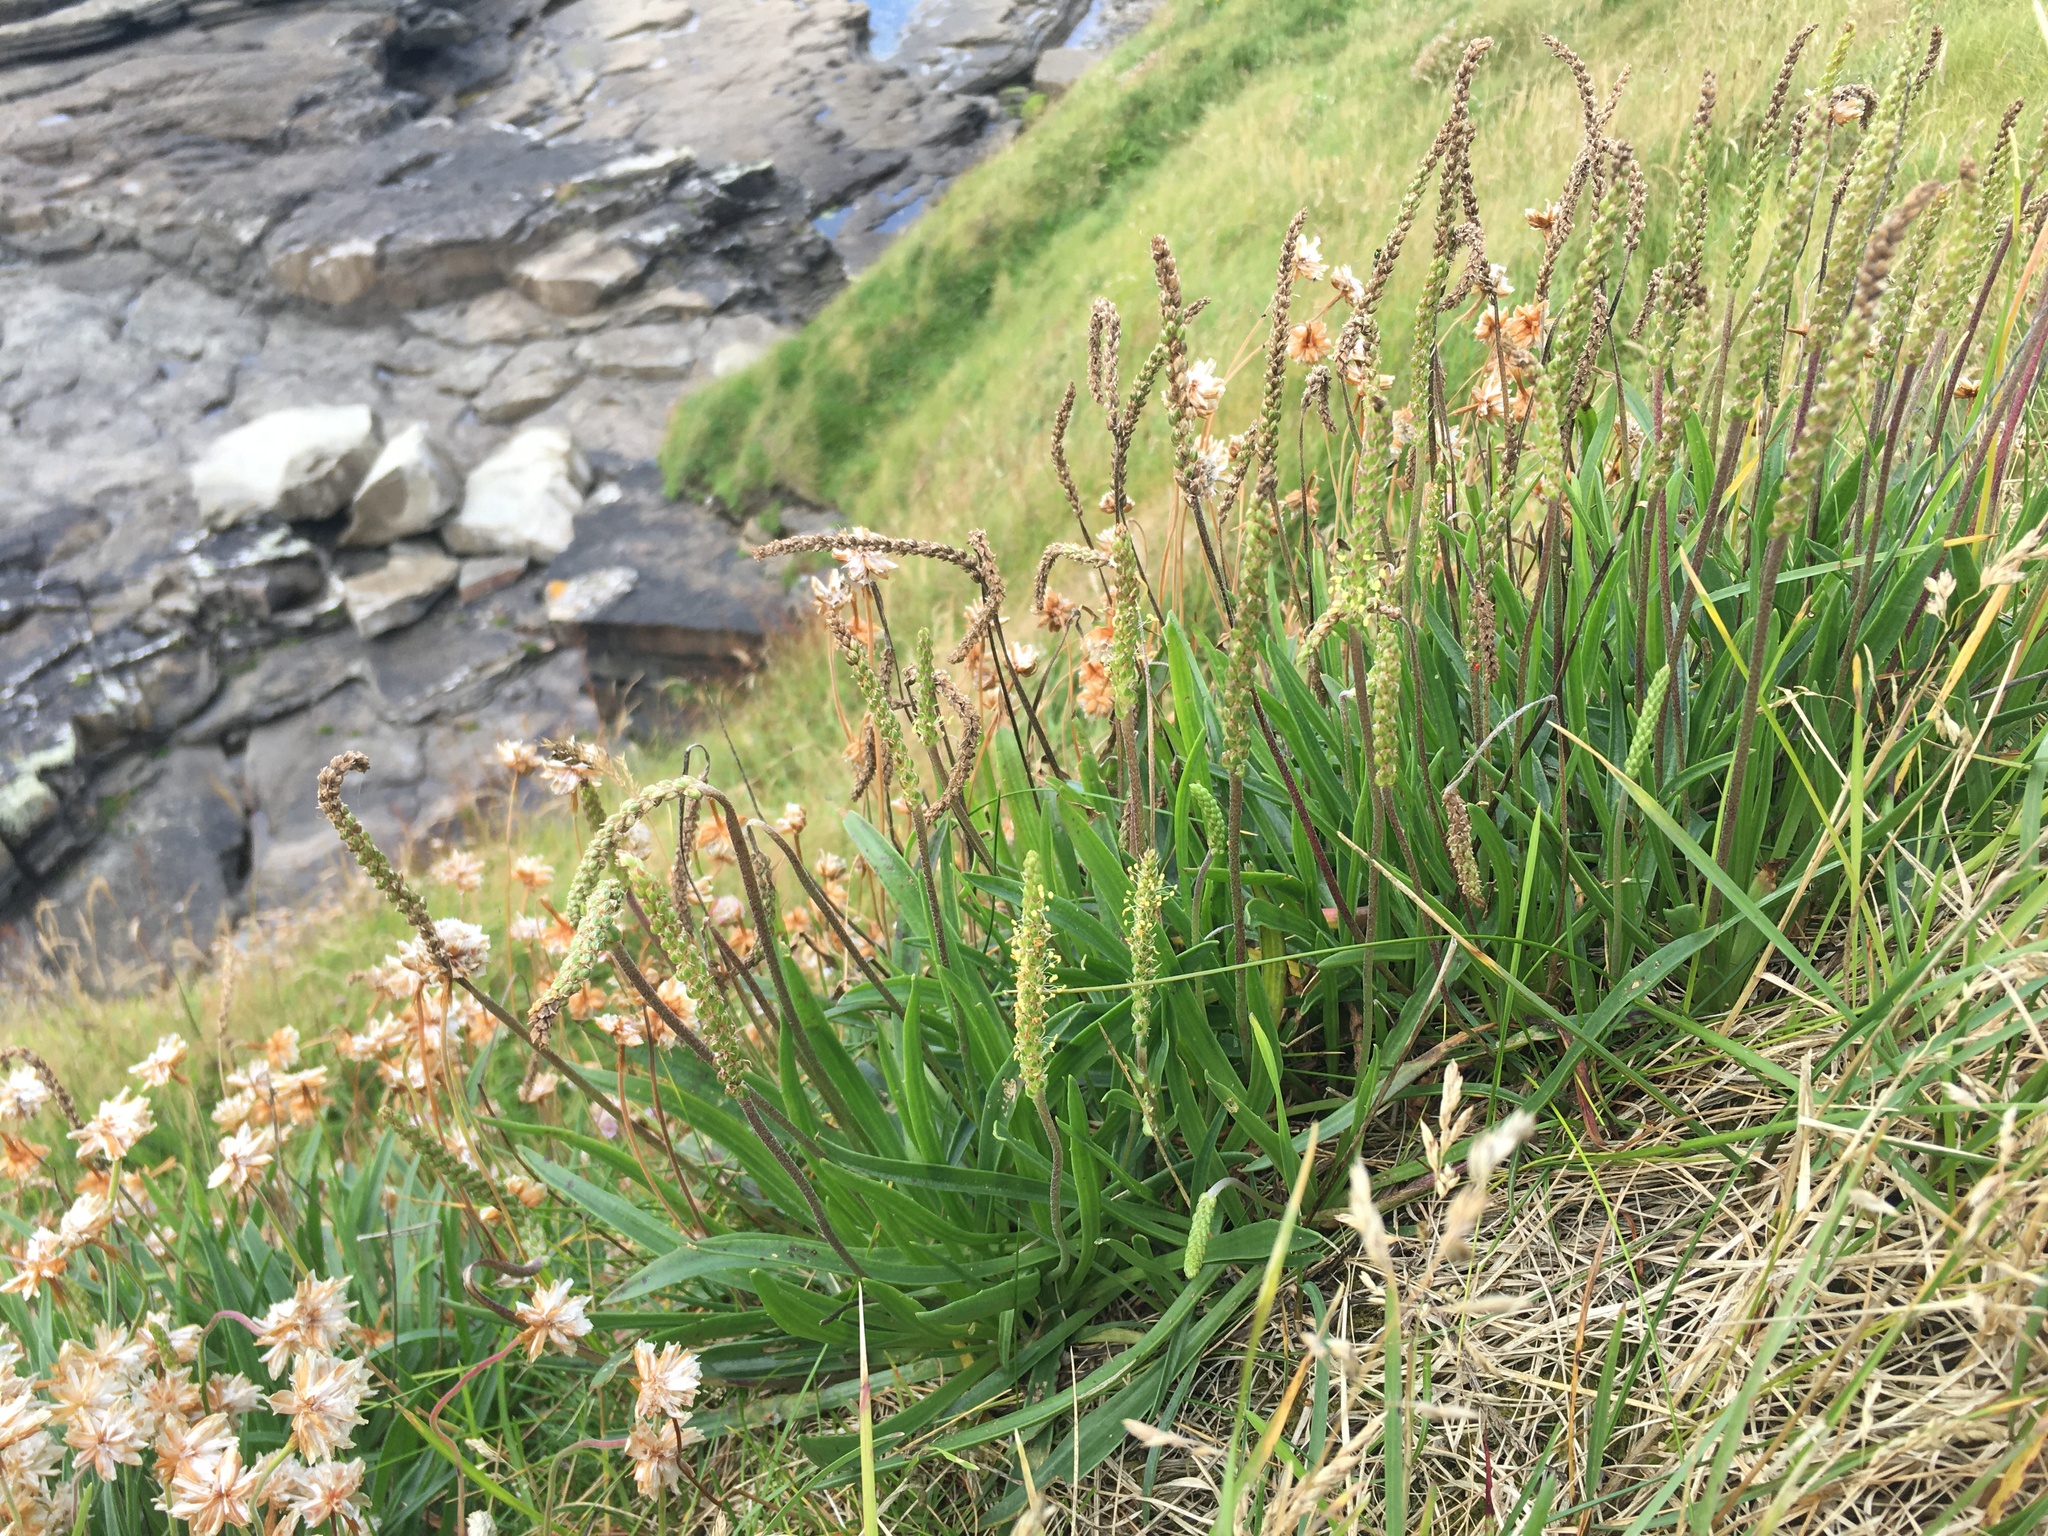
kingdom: Plantae
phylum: Tracheophyta
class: Magnoliopsida
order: Lamiales
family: Plantaginaceae
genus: Plantago
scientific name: Plantago maritima
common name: Sea plantain
